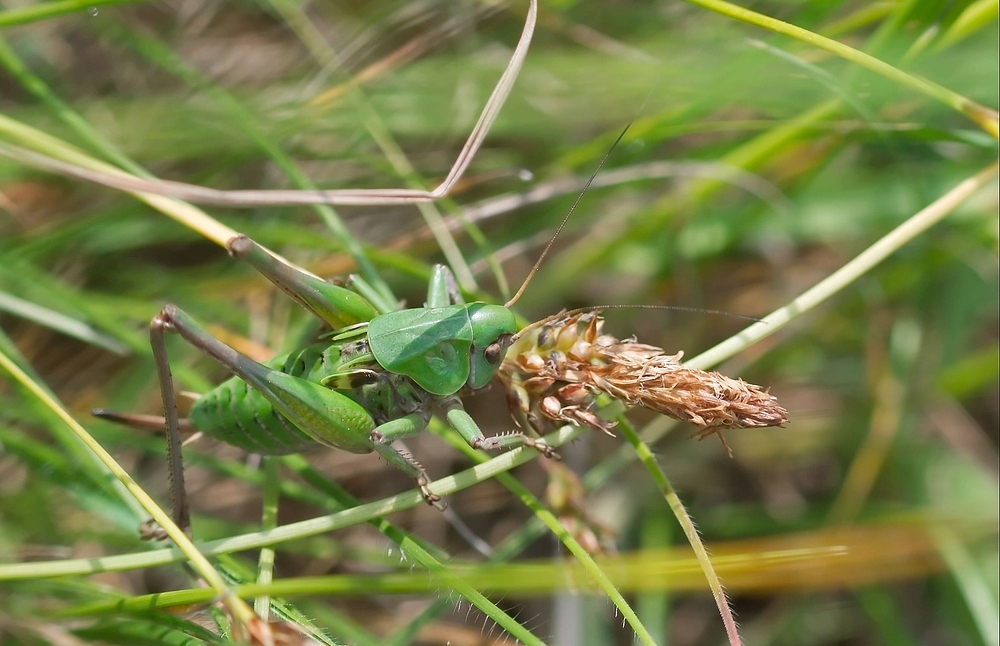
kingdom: Animalia
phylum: Arthropoda
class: Insecta
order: Orthoptera
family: Tettigoniidae
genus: Decticus
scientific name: Decticus verrucivorus
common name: Wart-biter
